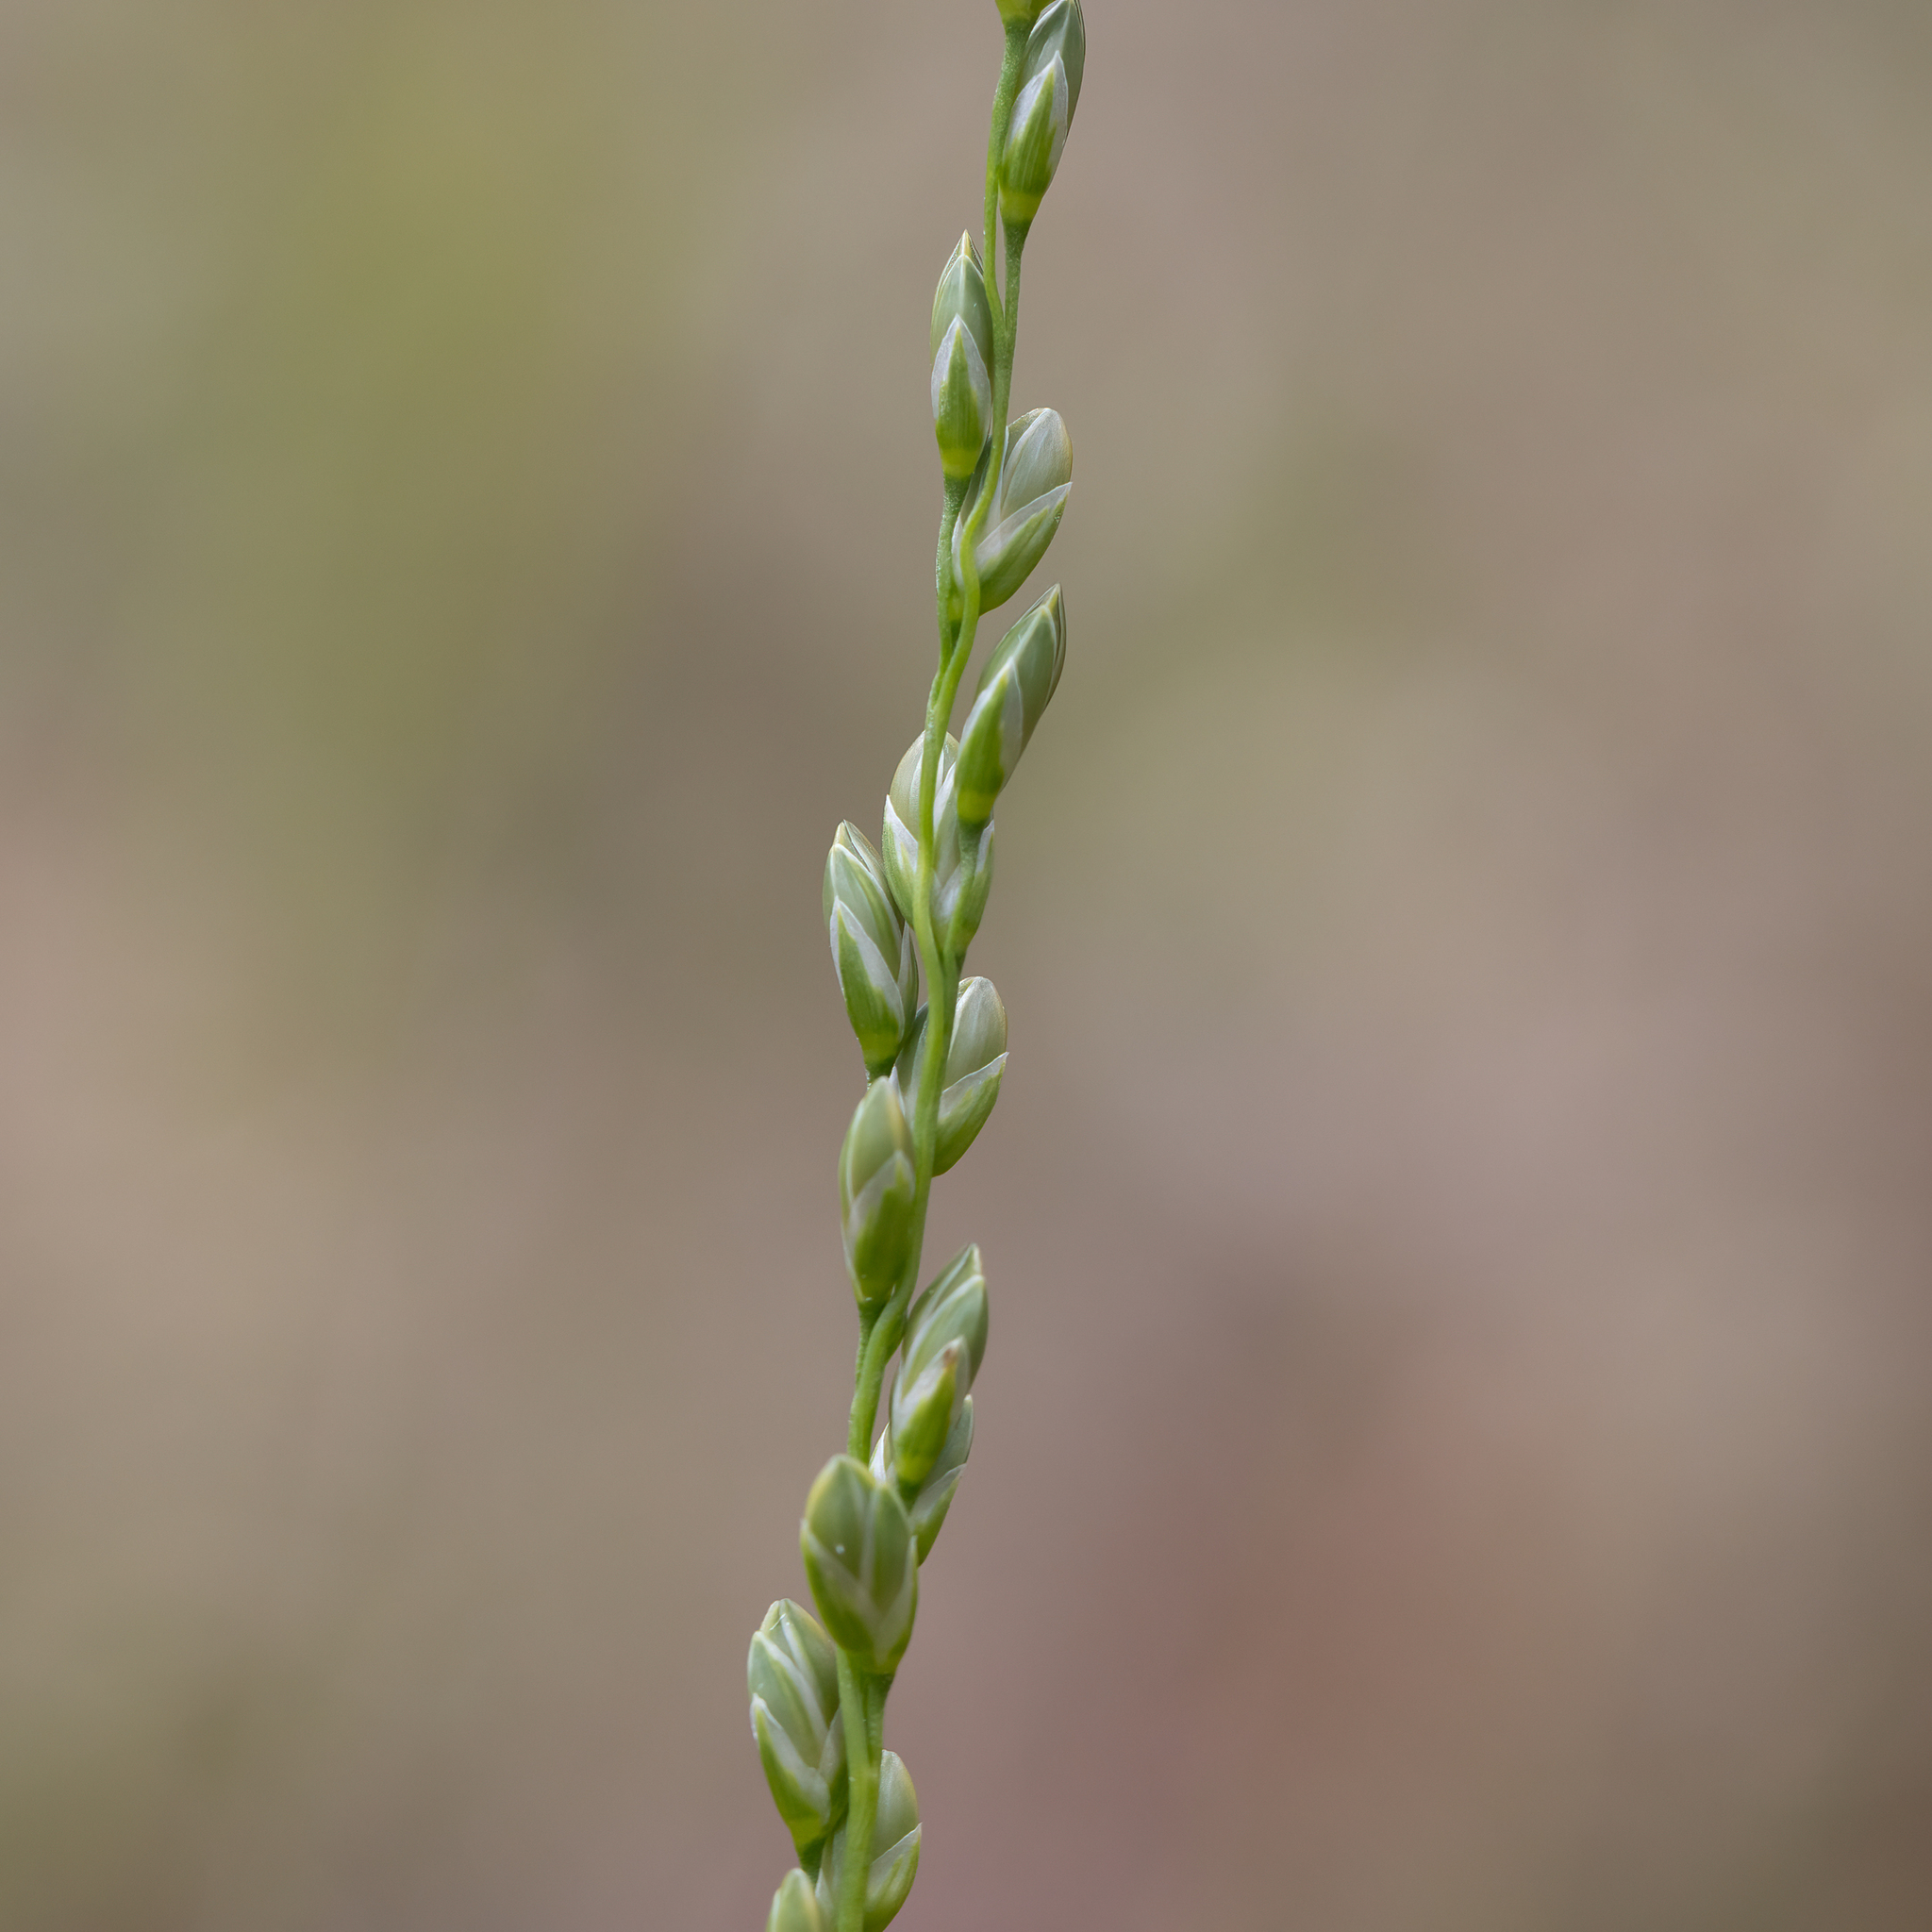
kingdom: Plantae
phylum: Tracheophyta
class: Liliopsida
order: Poales
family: Poaceae
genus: Tetrarrhena
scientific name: Tetrarrhena laevis
